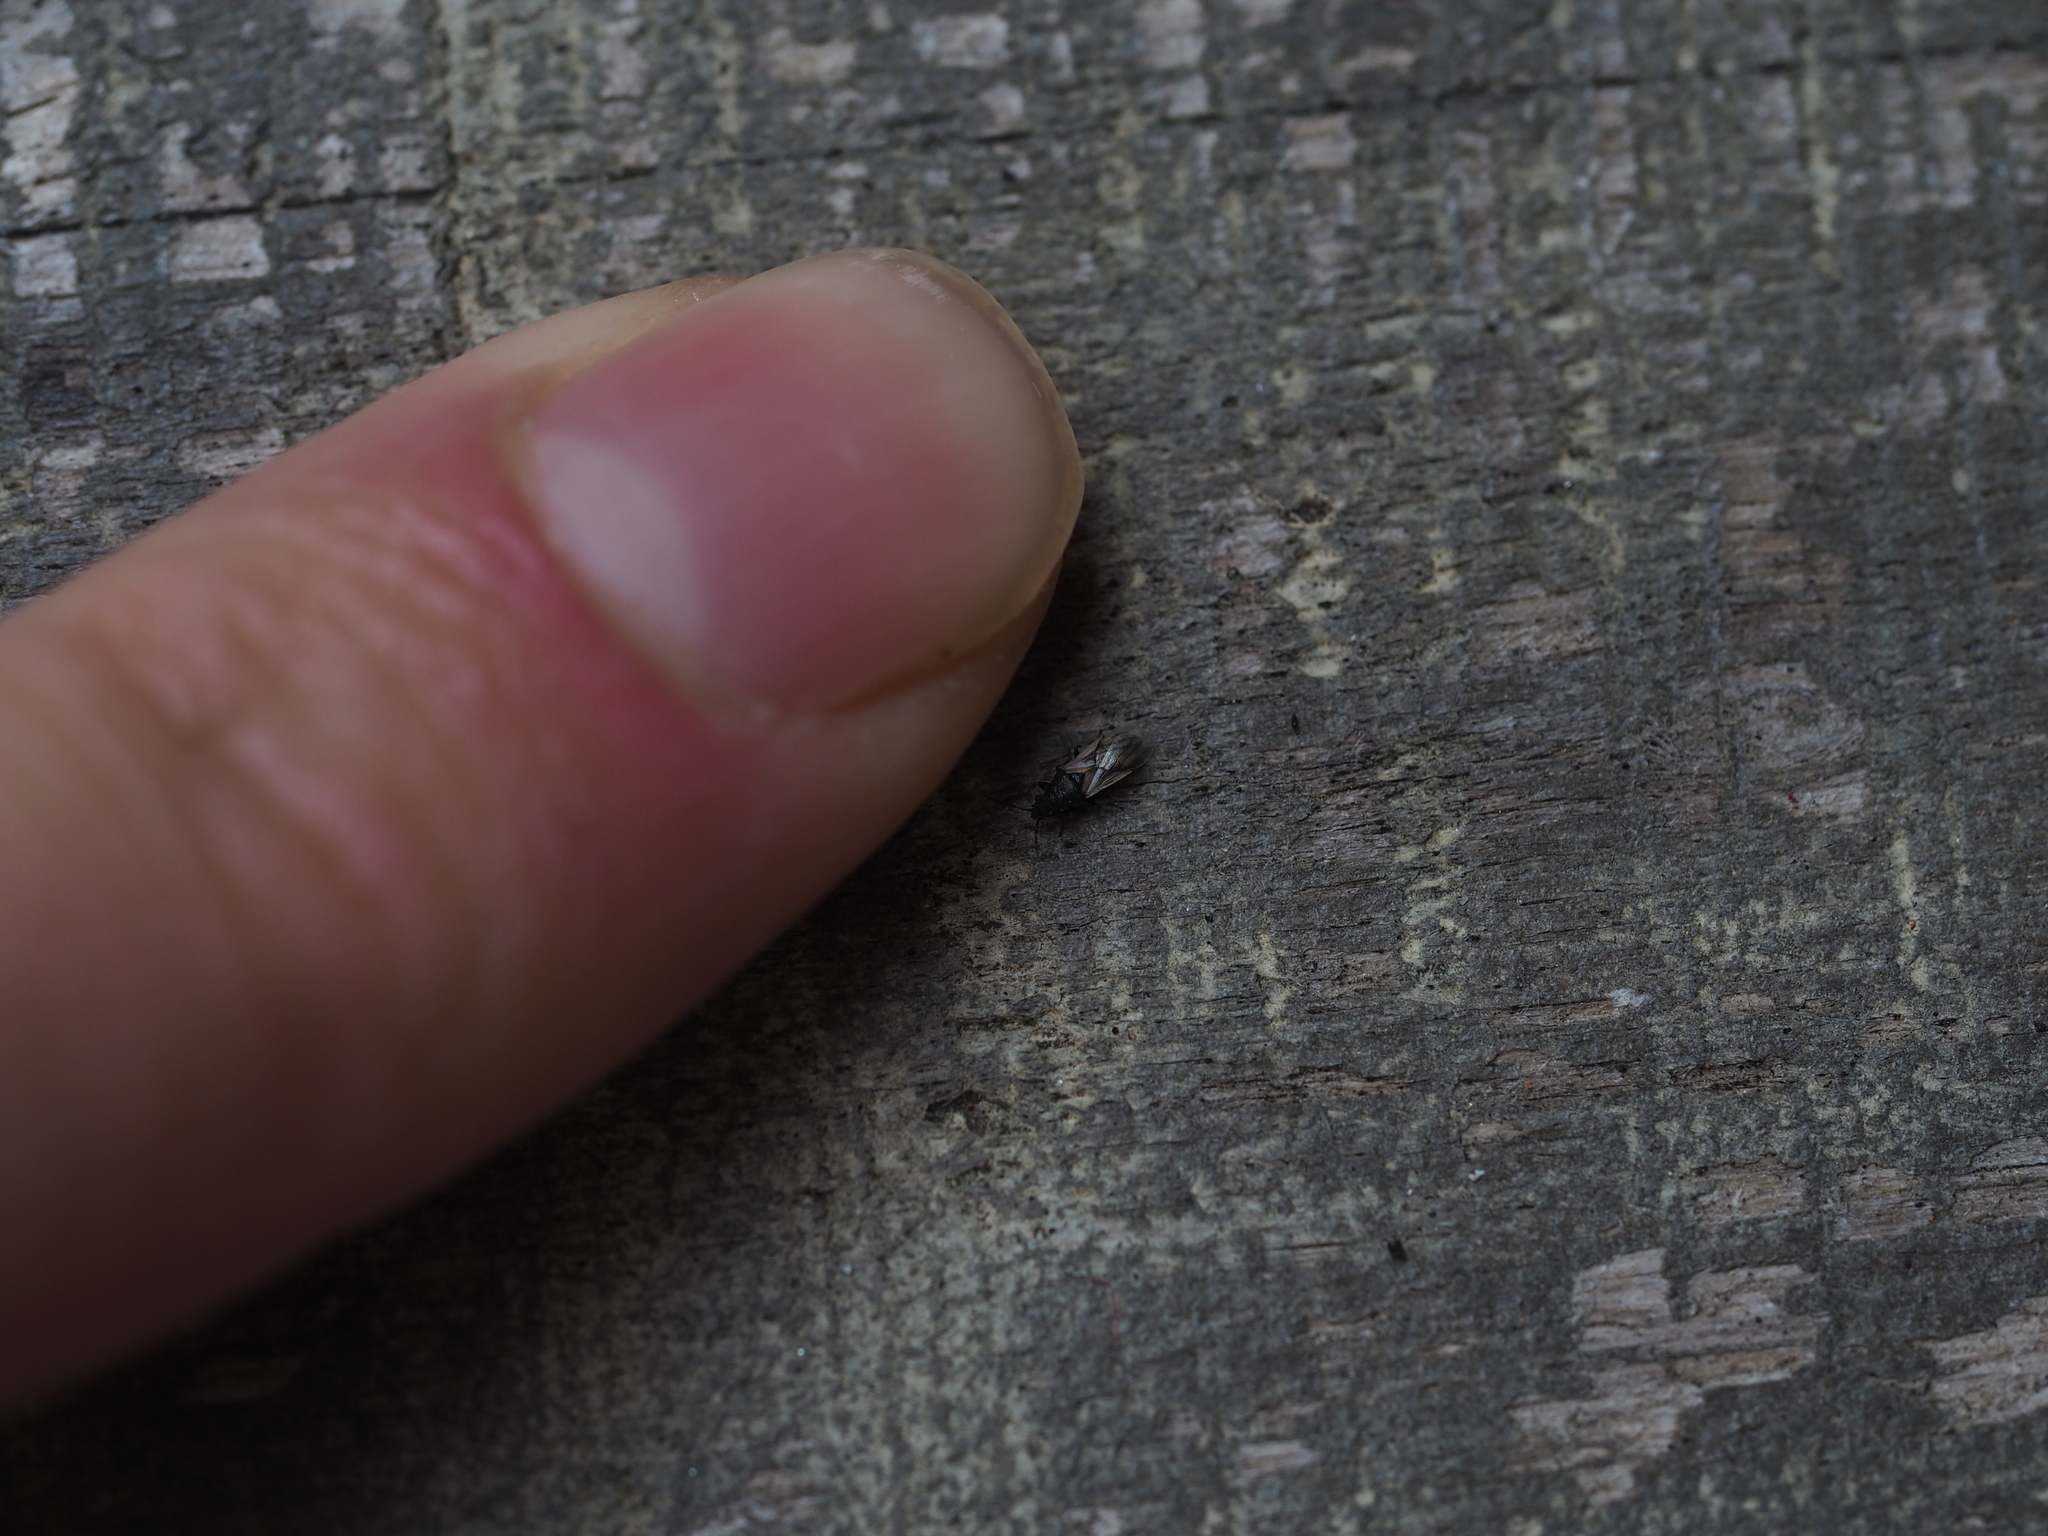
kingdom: Animalia
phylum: Arthropoda
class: Insecta
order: Hemiptera
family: Oxycarenidae
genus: Metopoplax
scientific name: Metopoplax origani
